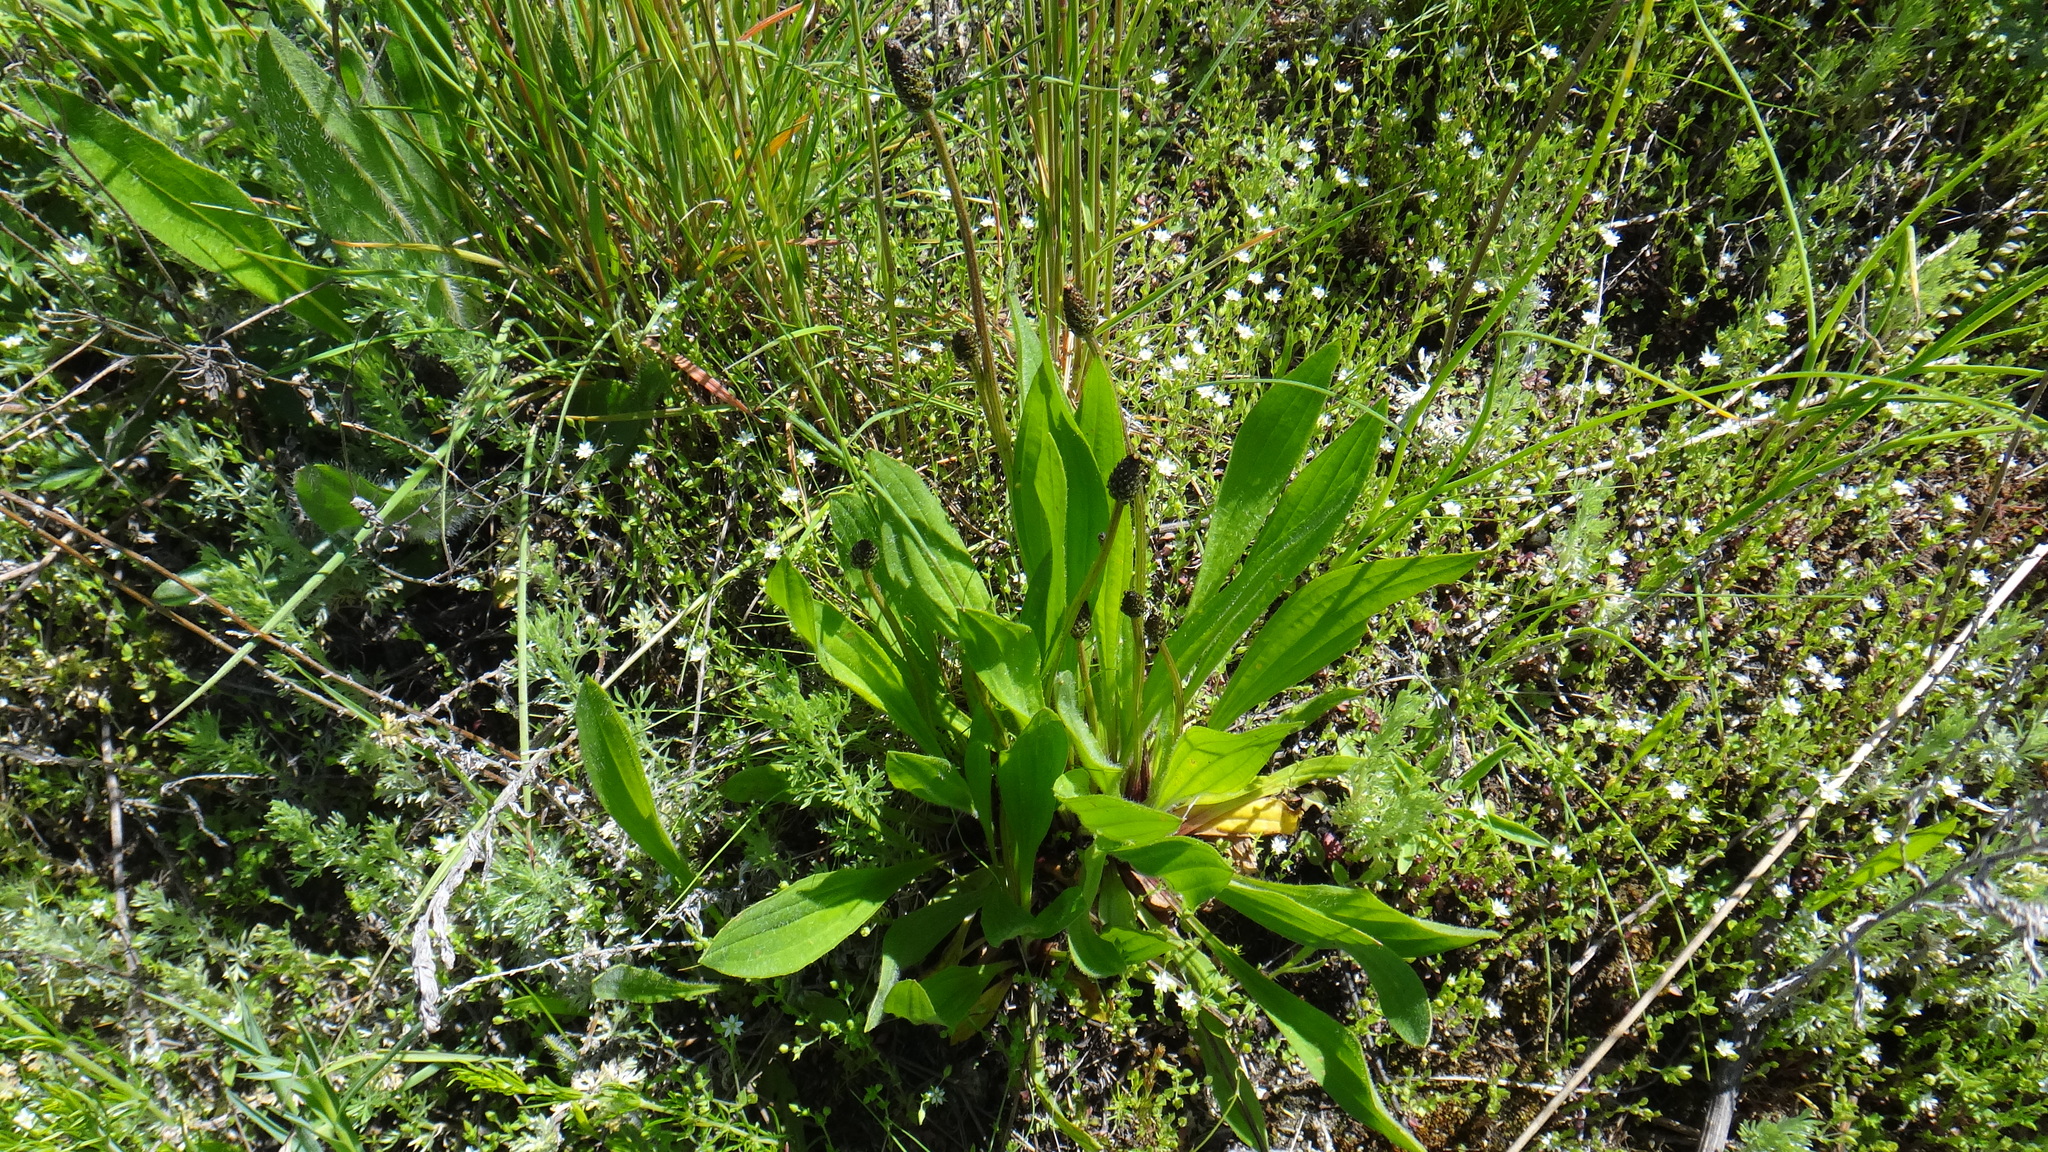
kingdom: Plantae
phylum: Tracheophyta
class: Magnoliopsida
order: Lamiales
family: Plantaginaceae
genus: Plantago
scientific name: Plantago lanceolata
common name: Ribwort plantain
